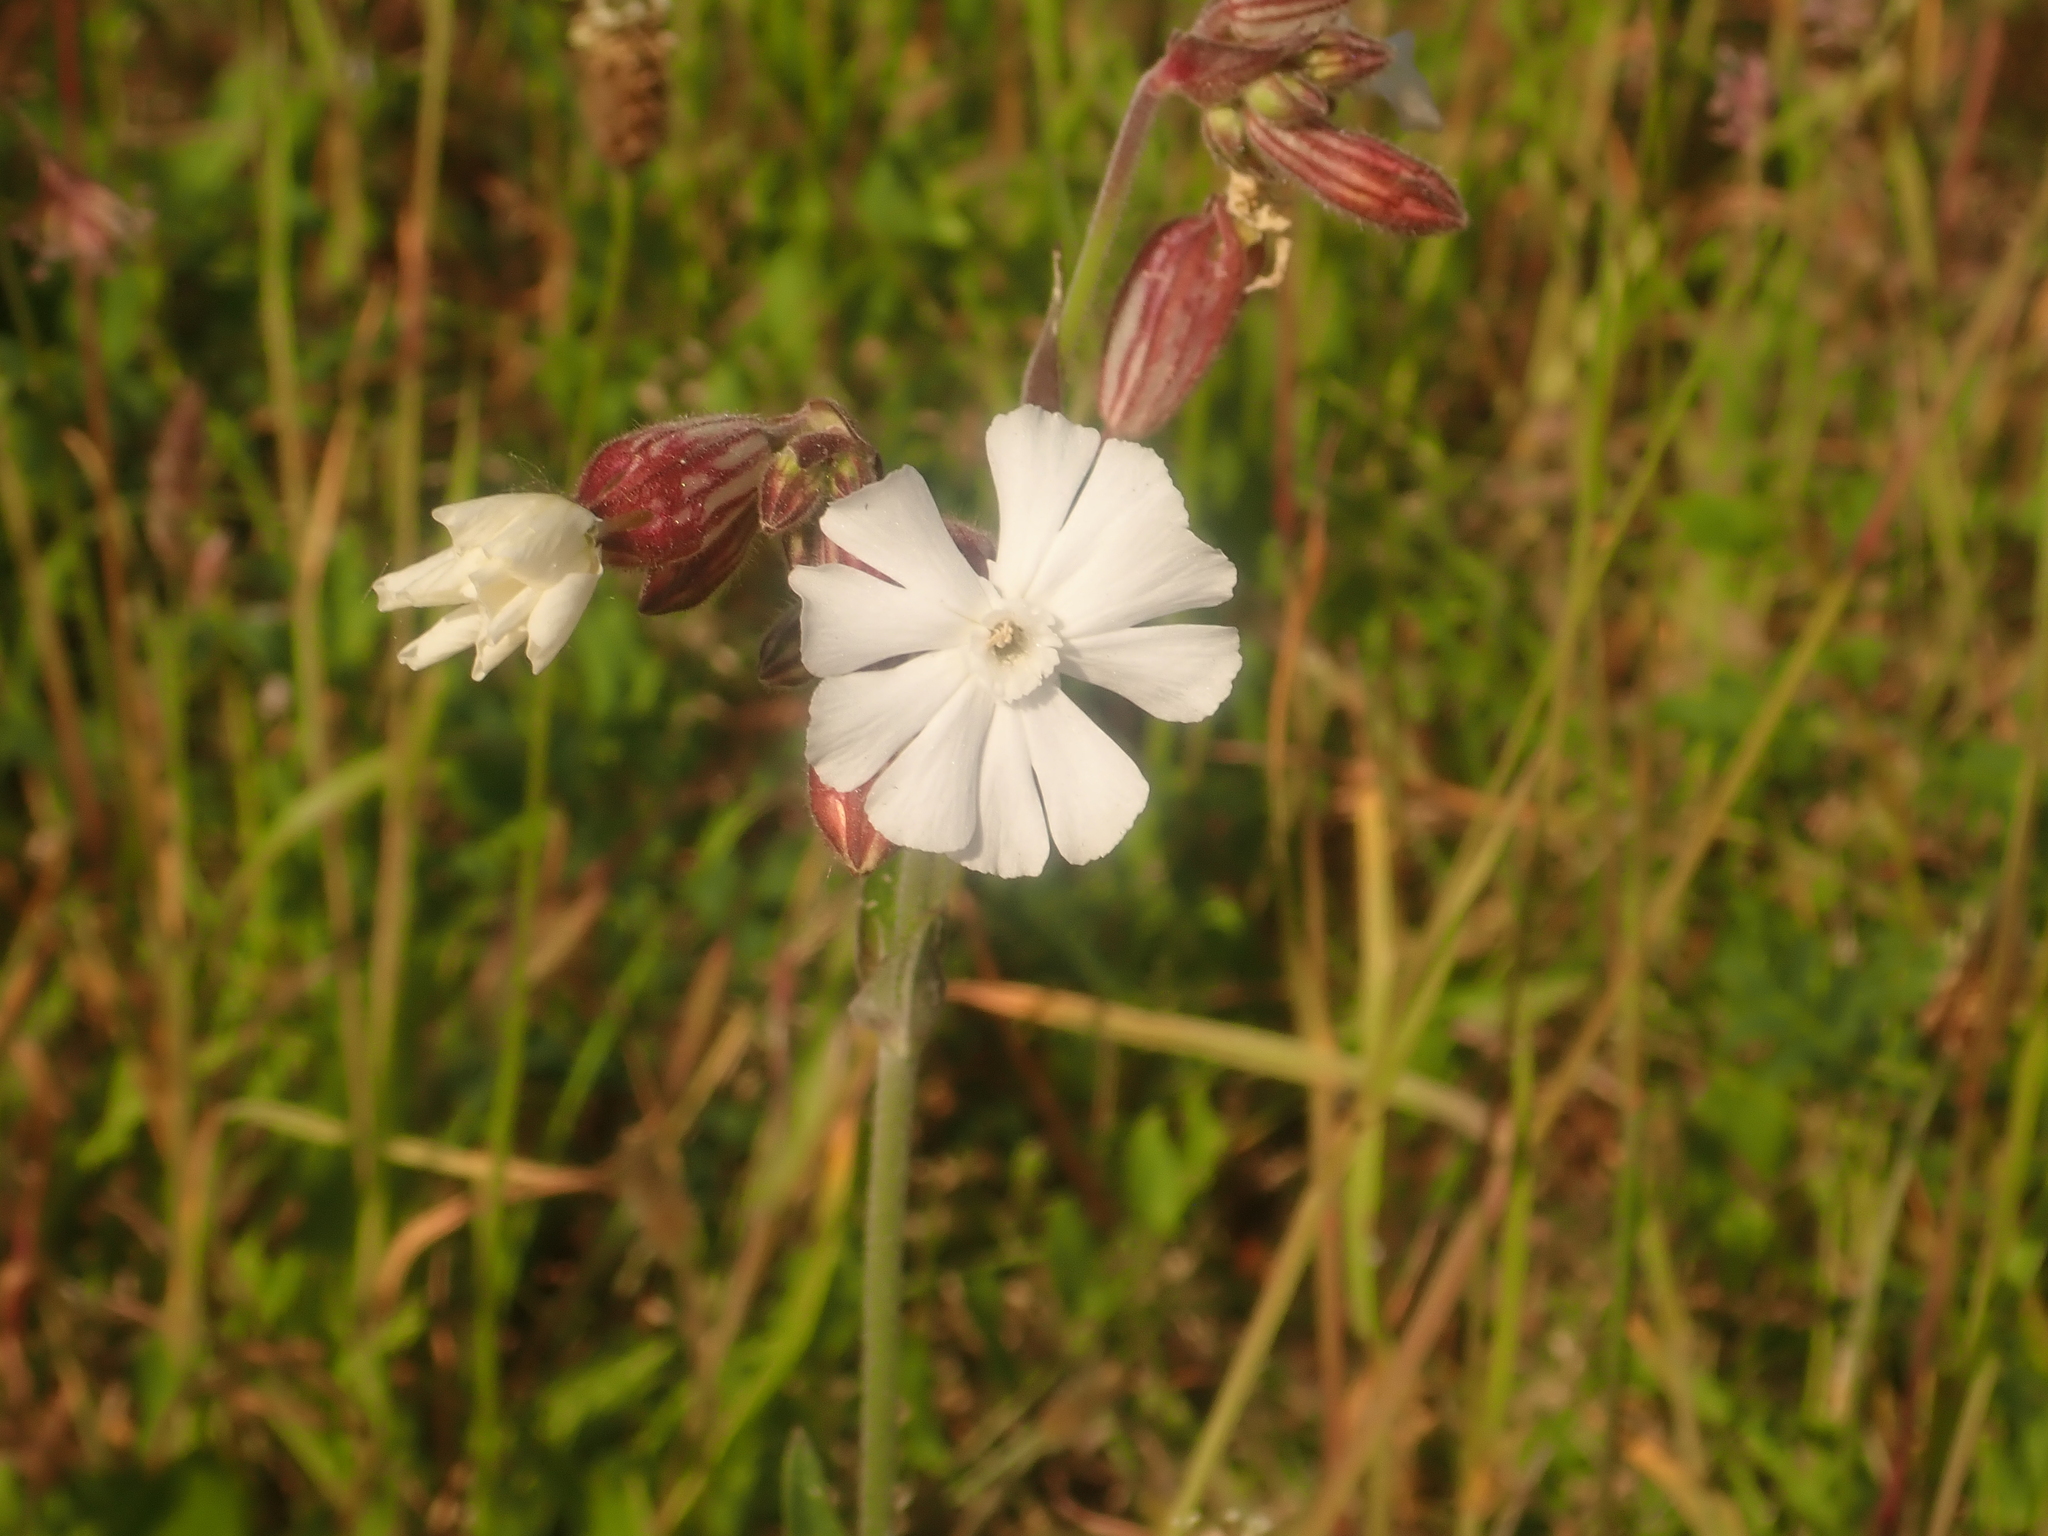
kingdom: Plantae
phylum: Tracheophyta
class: Magnoliopsida
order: Caryophyllales
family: Caryophyllaceae
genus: Silene
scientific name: Silene latifolia
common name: White campion
